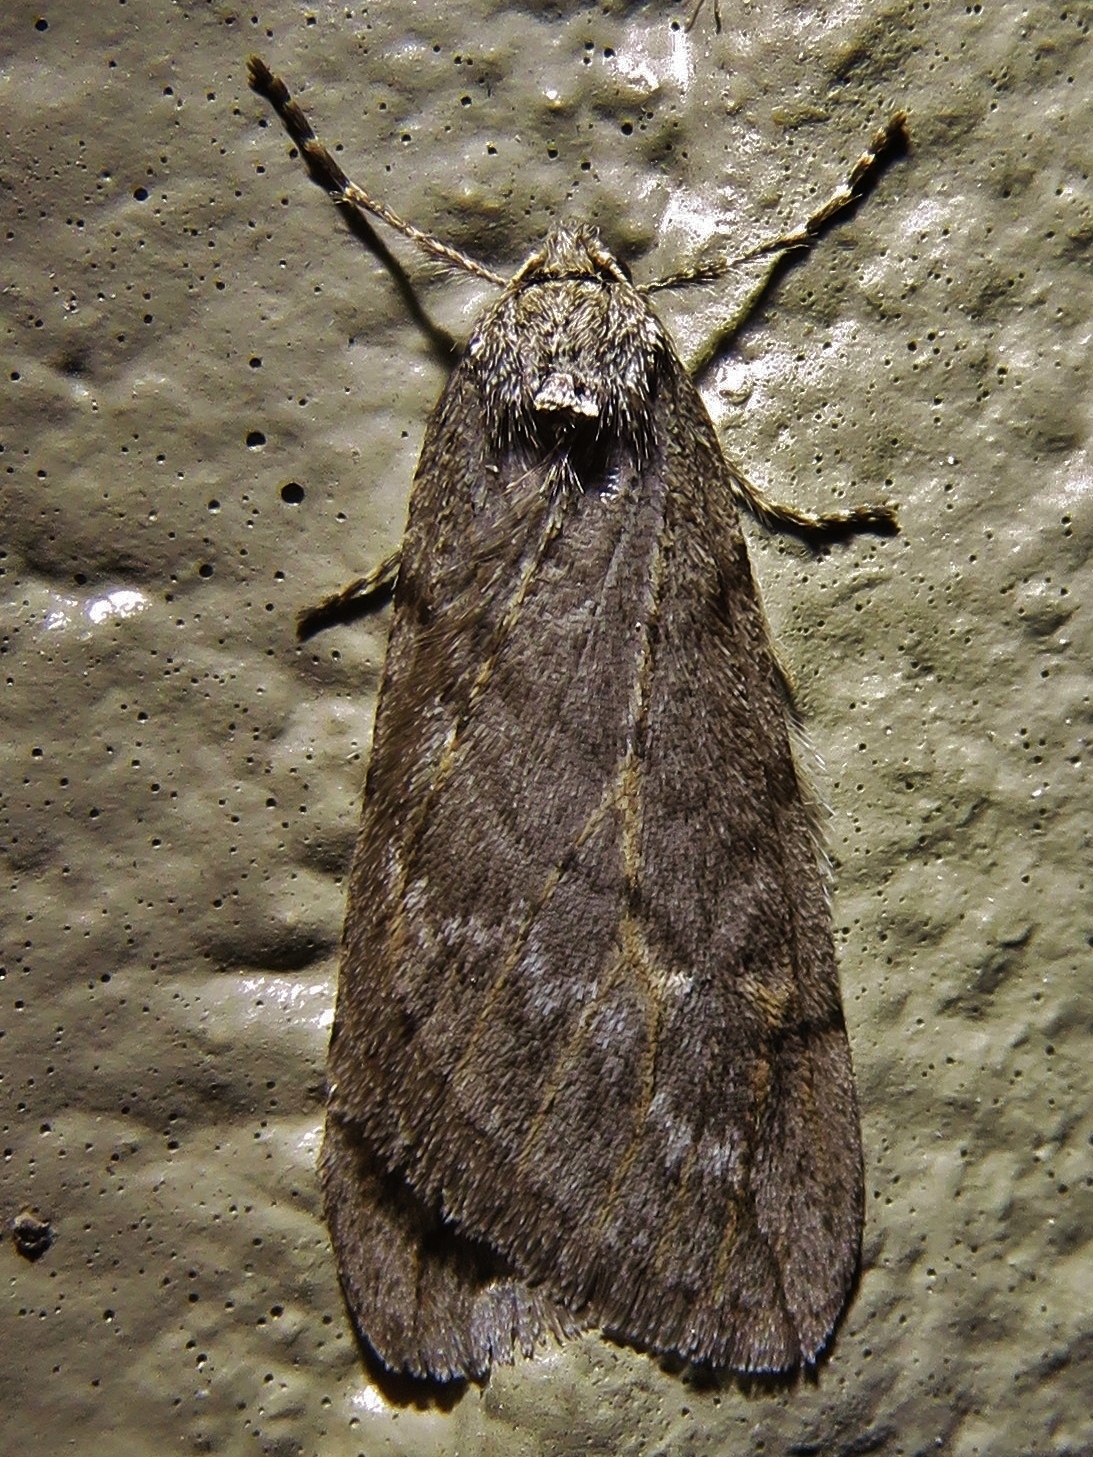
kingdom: Animalia
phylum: Arthropoda
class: Insecta
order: Lepidoptera
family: Geometridae
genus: Paleacrita
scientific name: Paleacrita vernata
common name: Spring cankerworm
